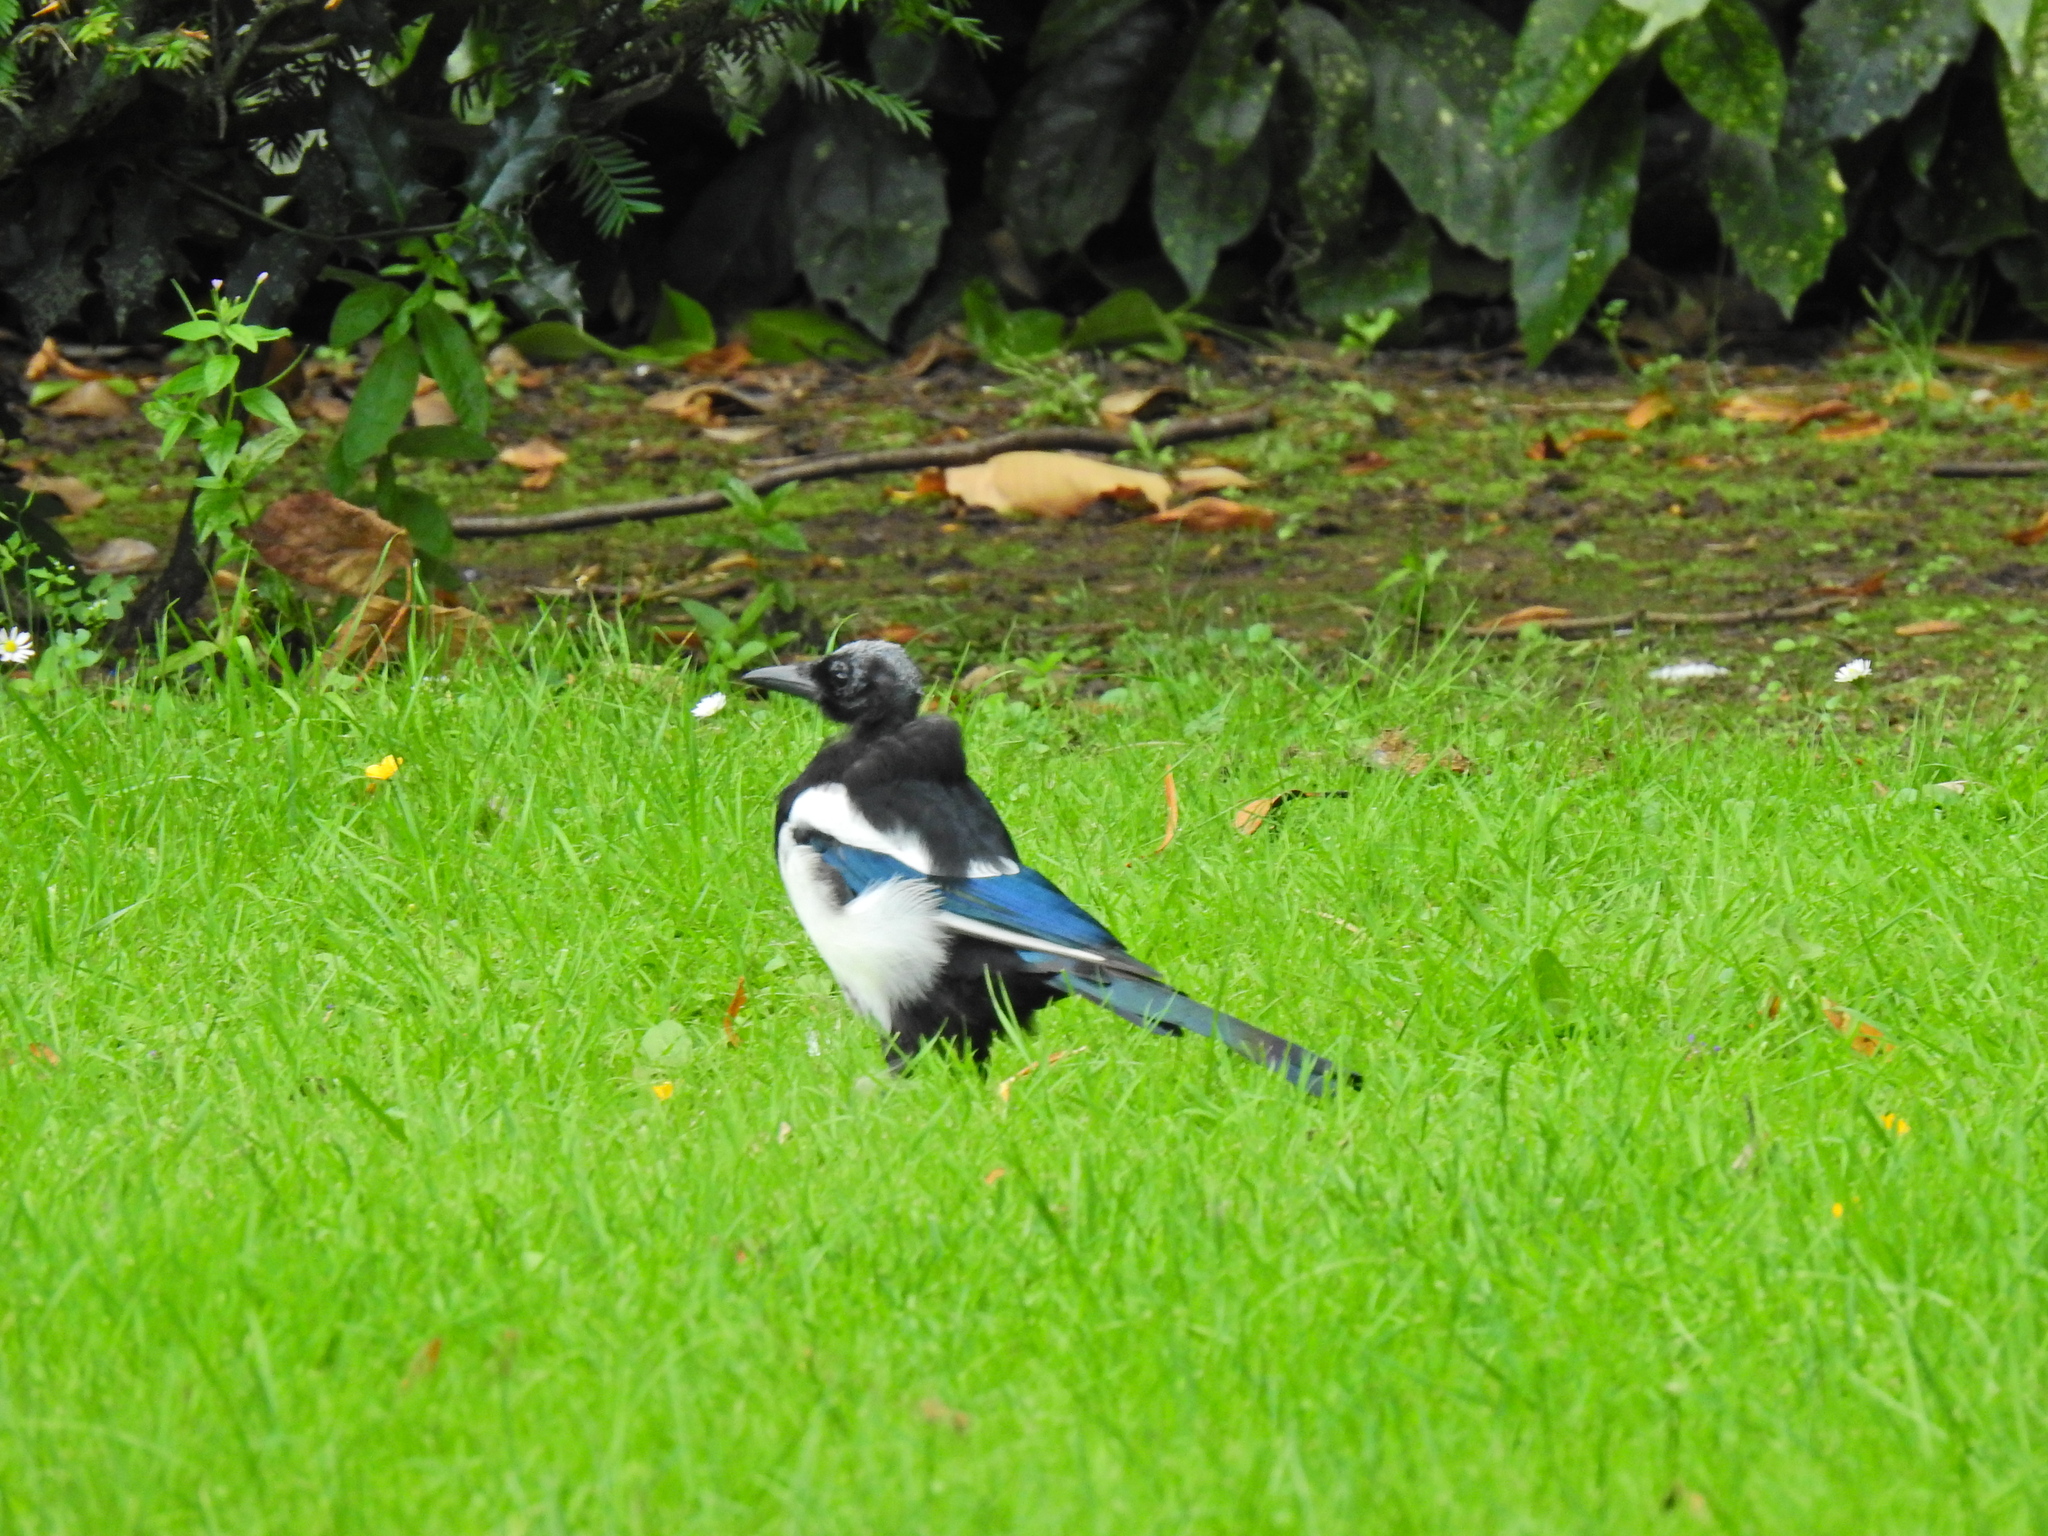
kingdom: Animalia
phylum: Chordata
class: Aves
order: Passeriformes
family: Corvidae
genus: Pica
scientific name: Pica pica
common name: Eurasian magpie
